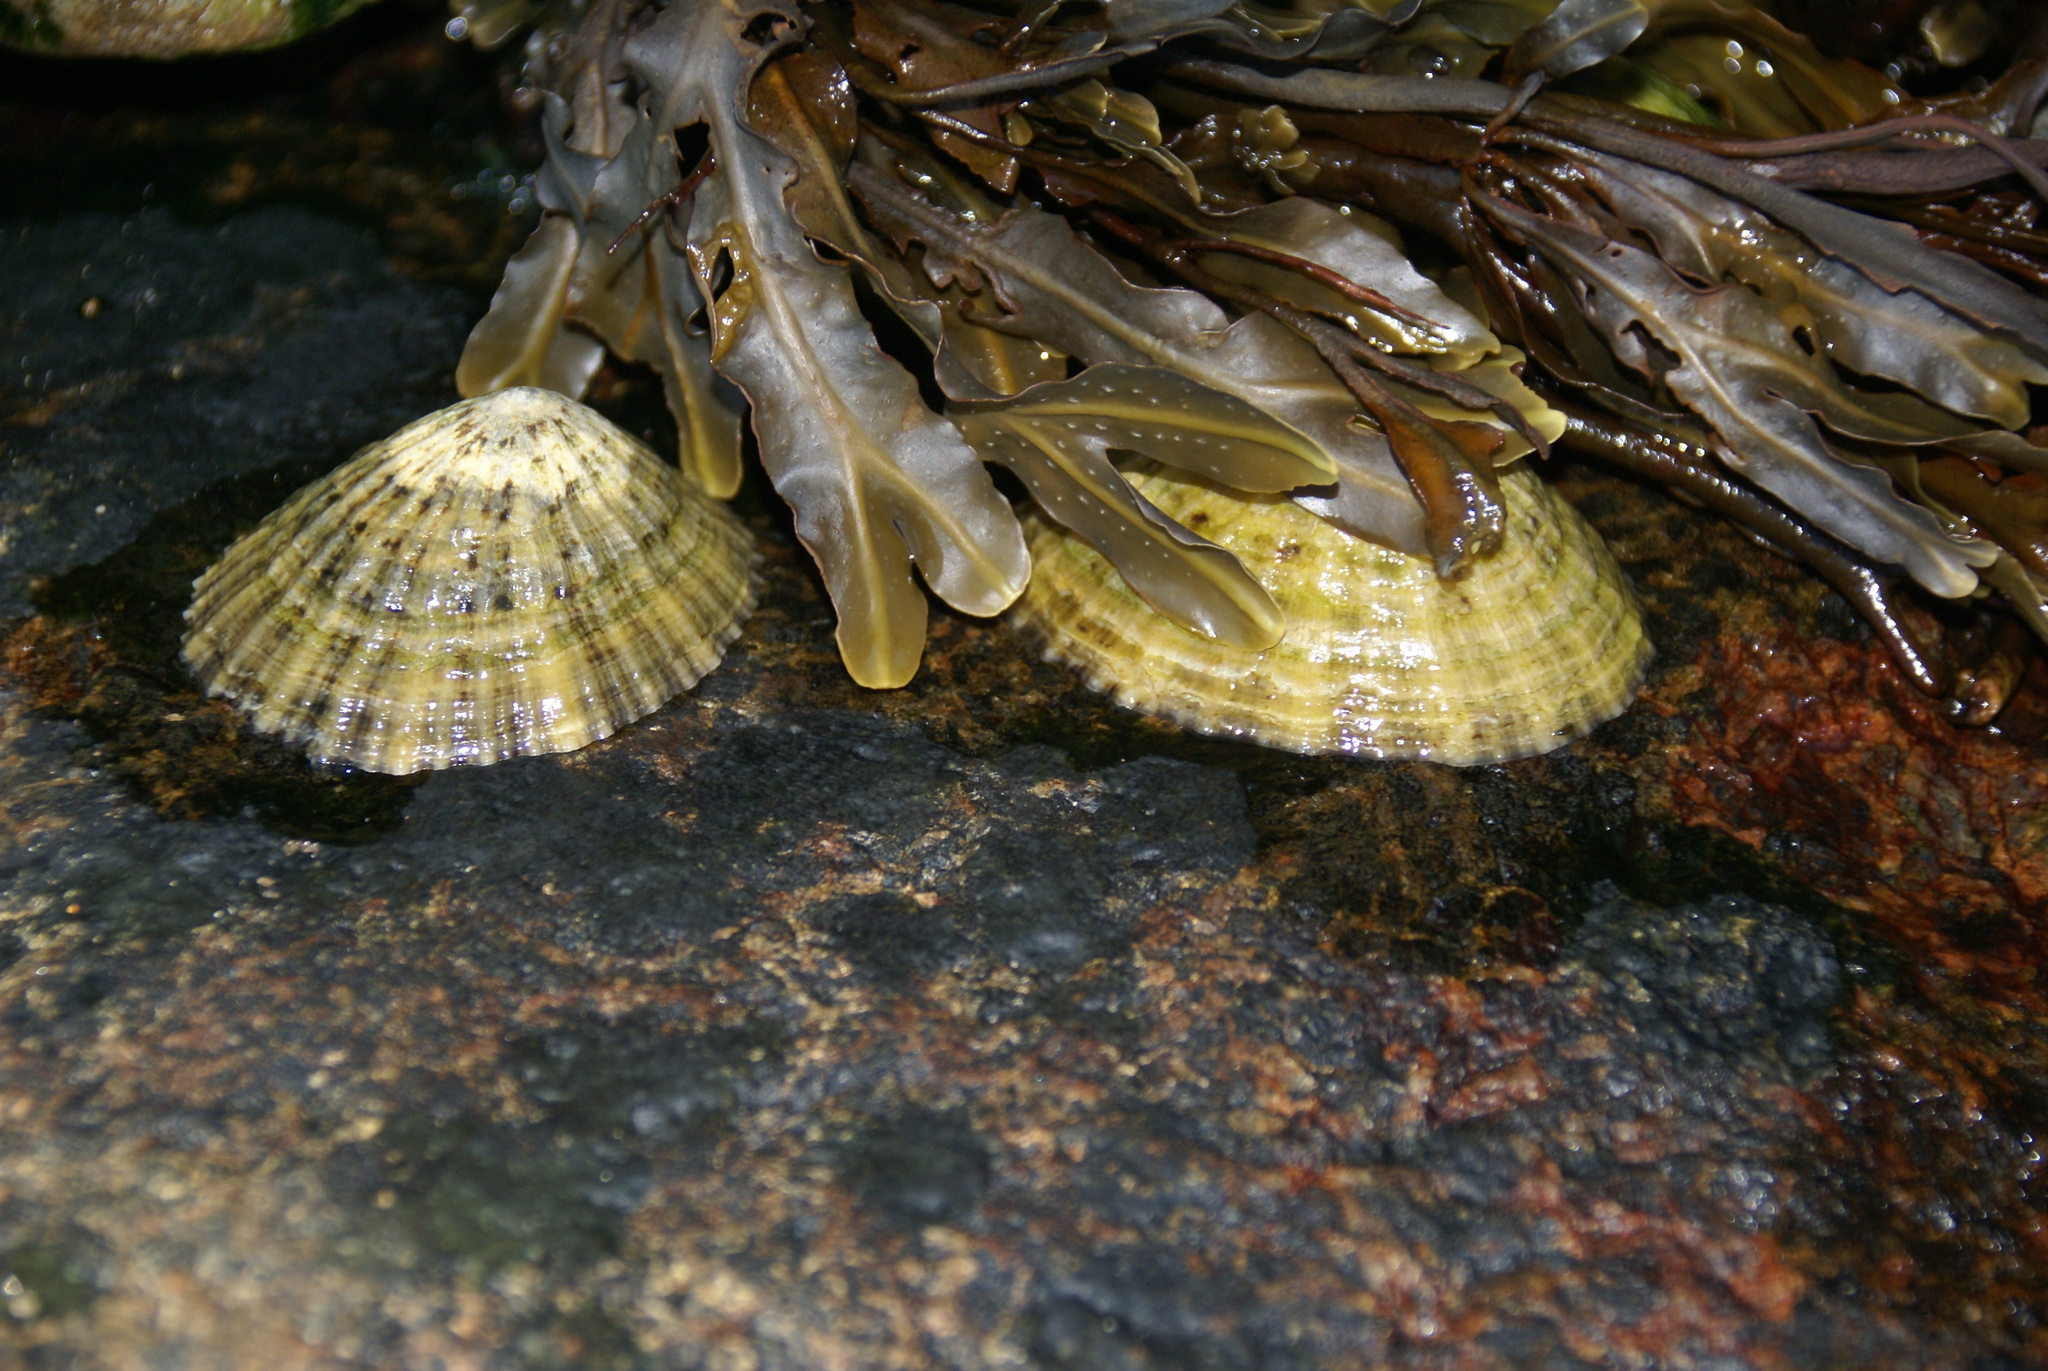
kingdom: Animalia
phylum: Mollusca
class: Gastropoda
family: Patellidae
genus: Patella
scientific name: Patella vulgata
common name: Common limpet
